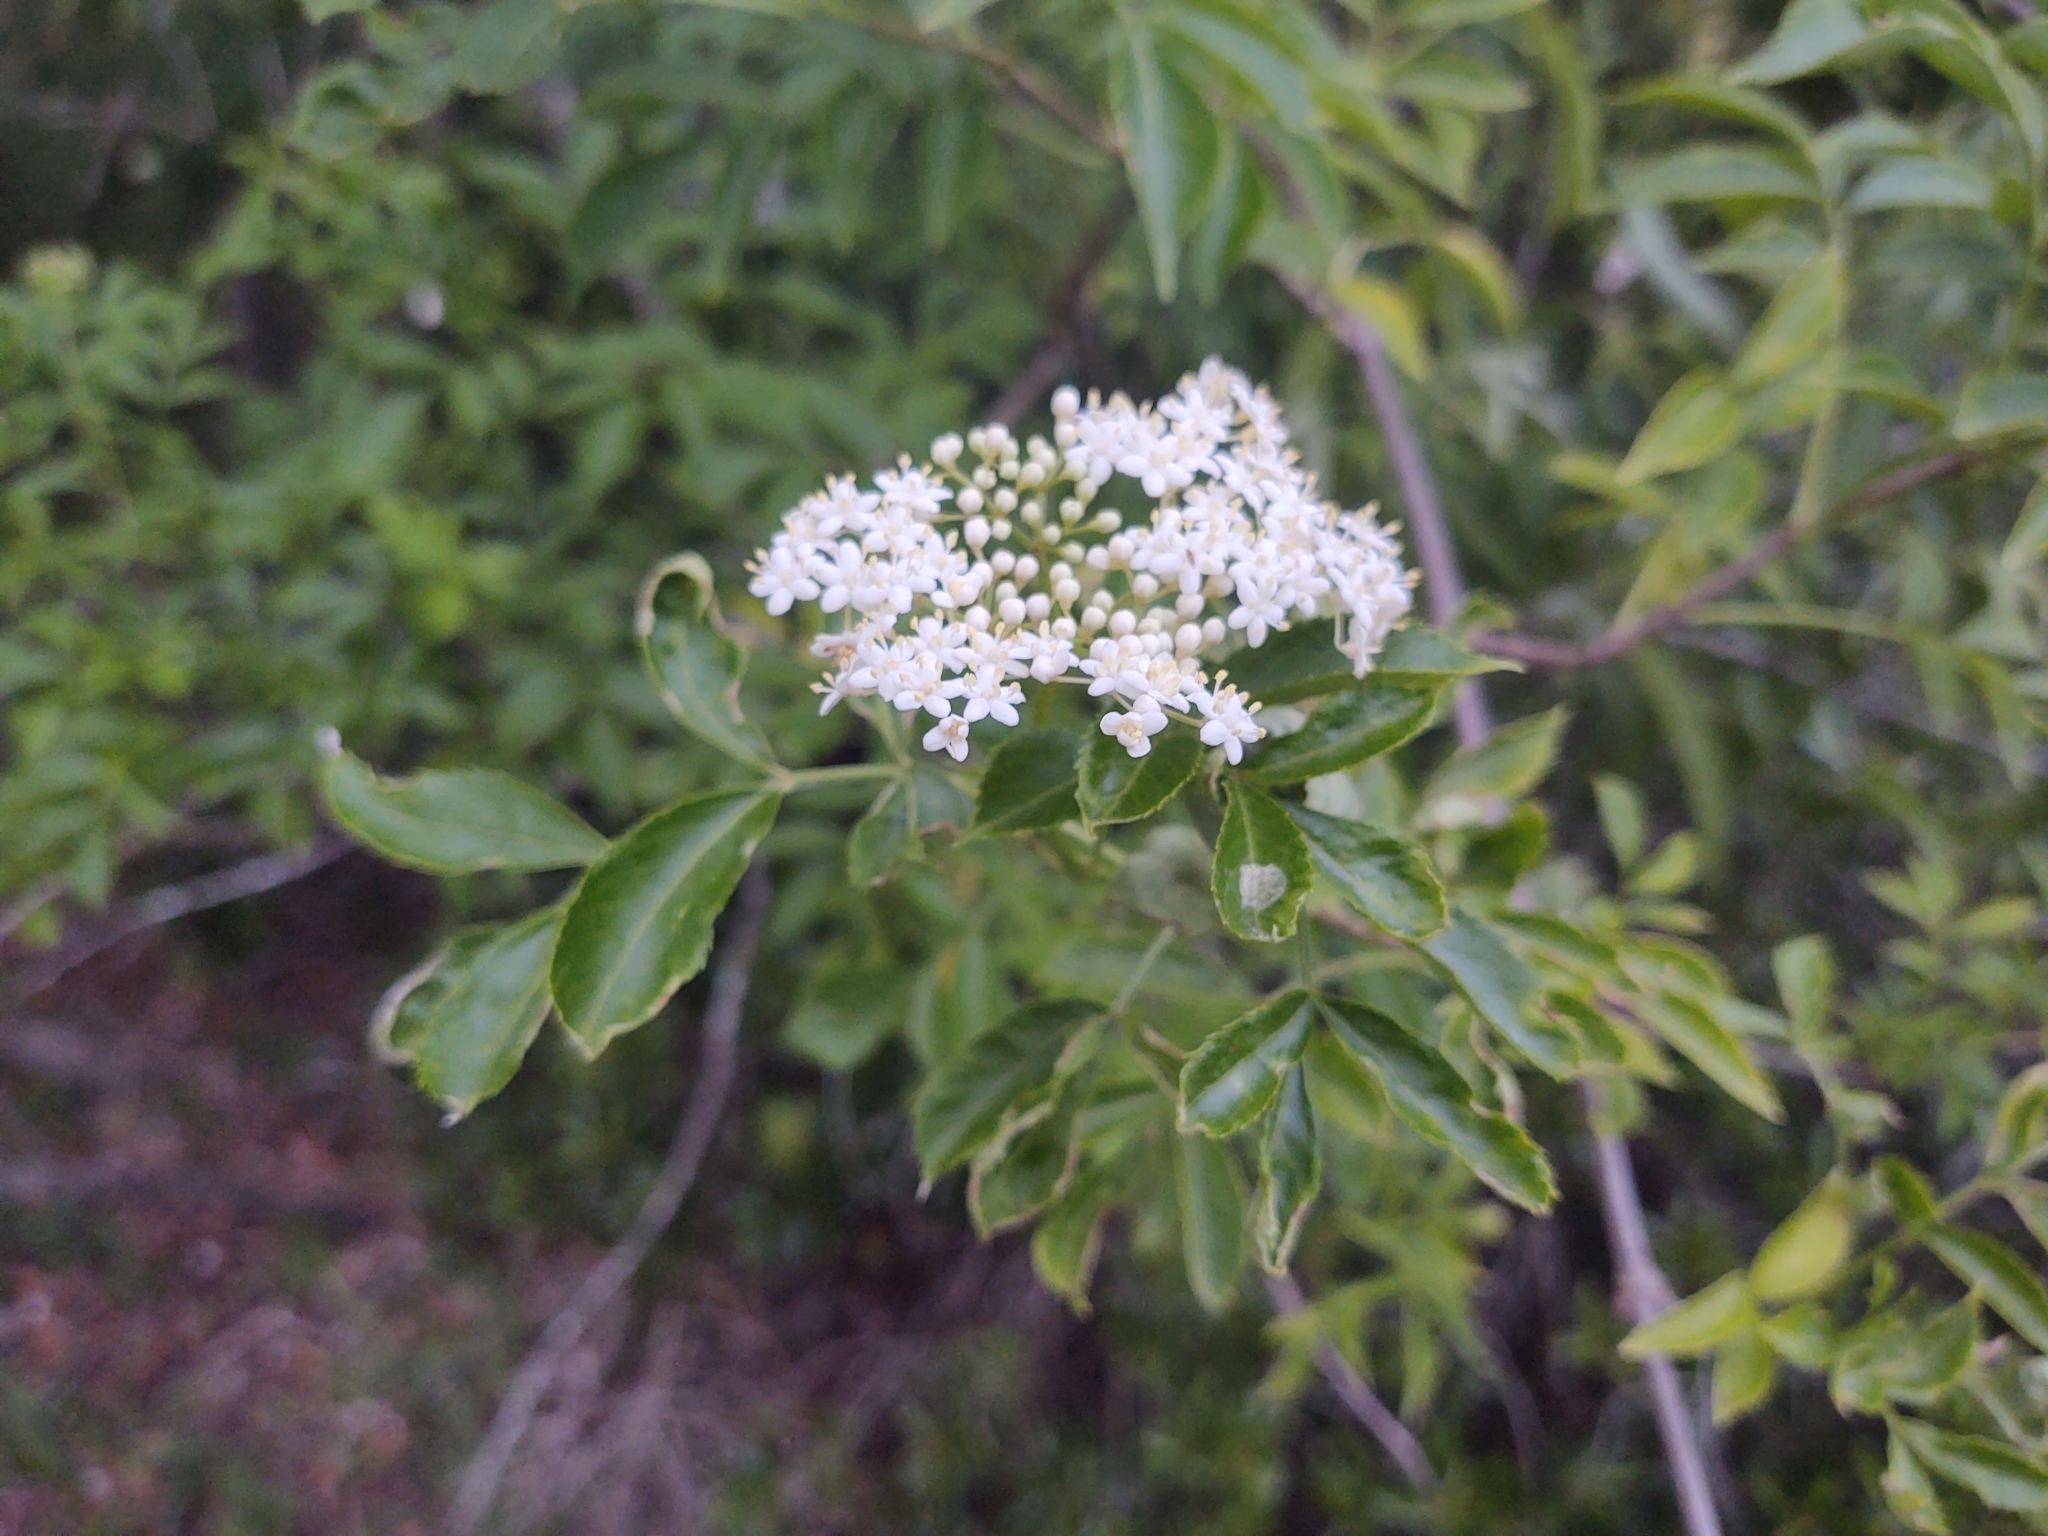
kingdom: Plantae
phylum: Tracheophyta
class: Magnoliopsida
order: Dipsacales
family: Viburnaceae
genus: Sambucus
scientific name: Sambucus canadensis
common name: American elder
